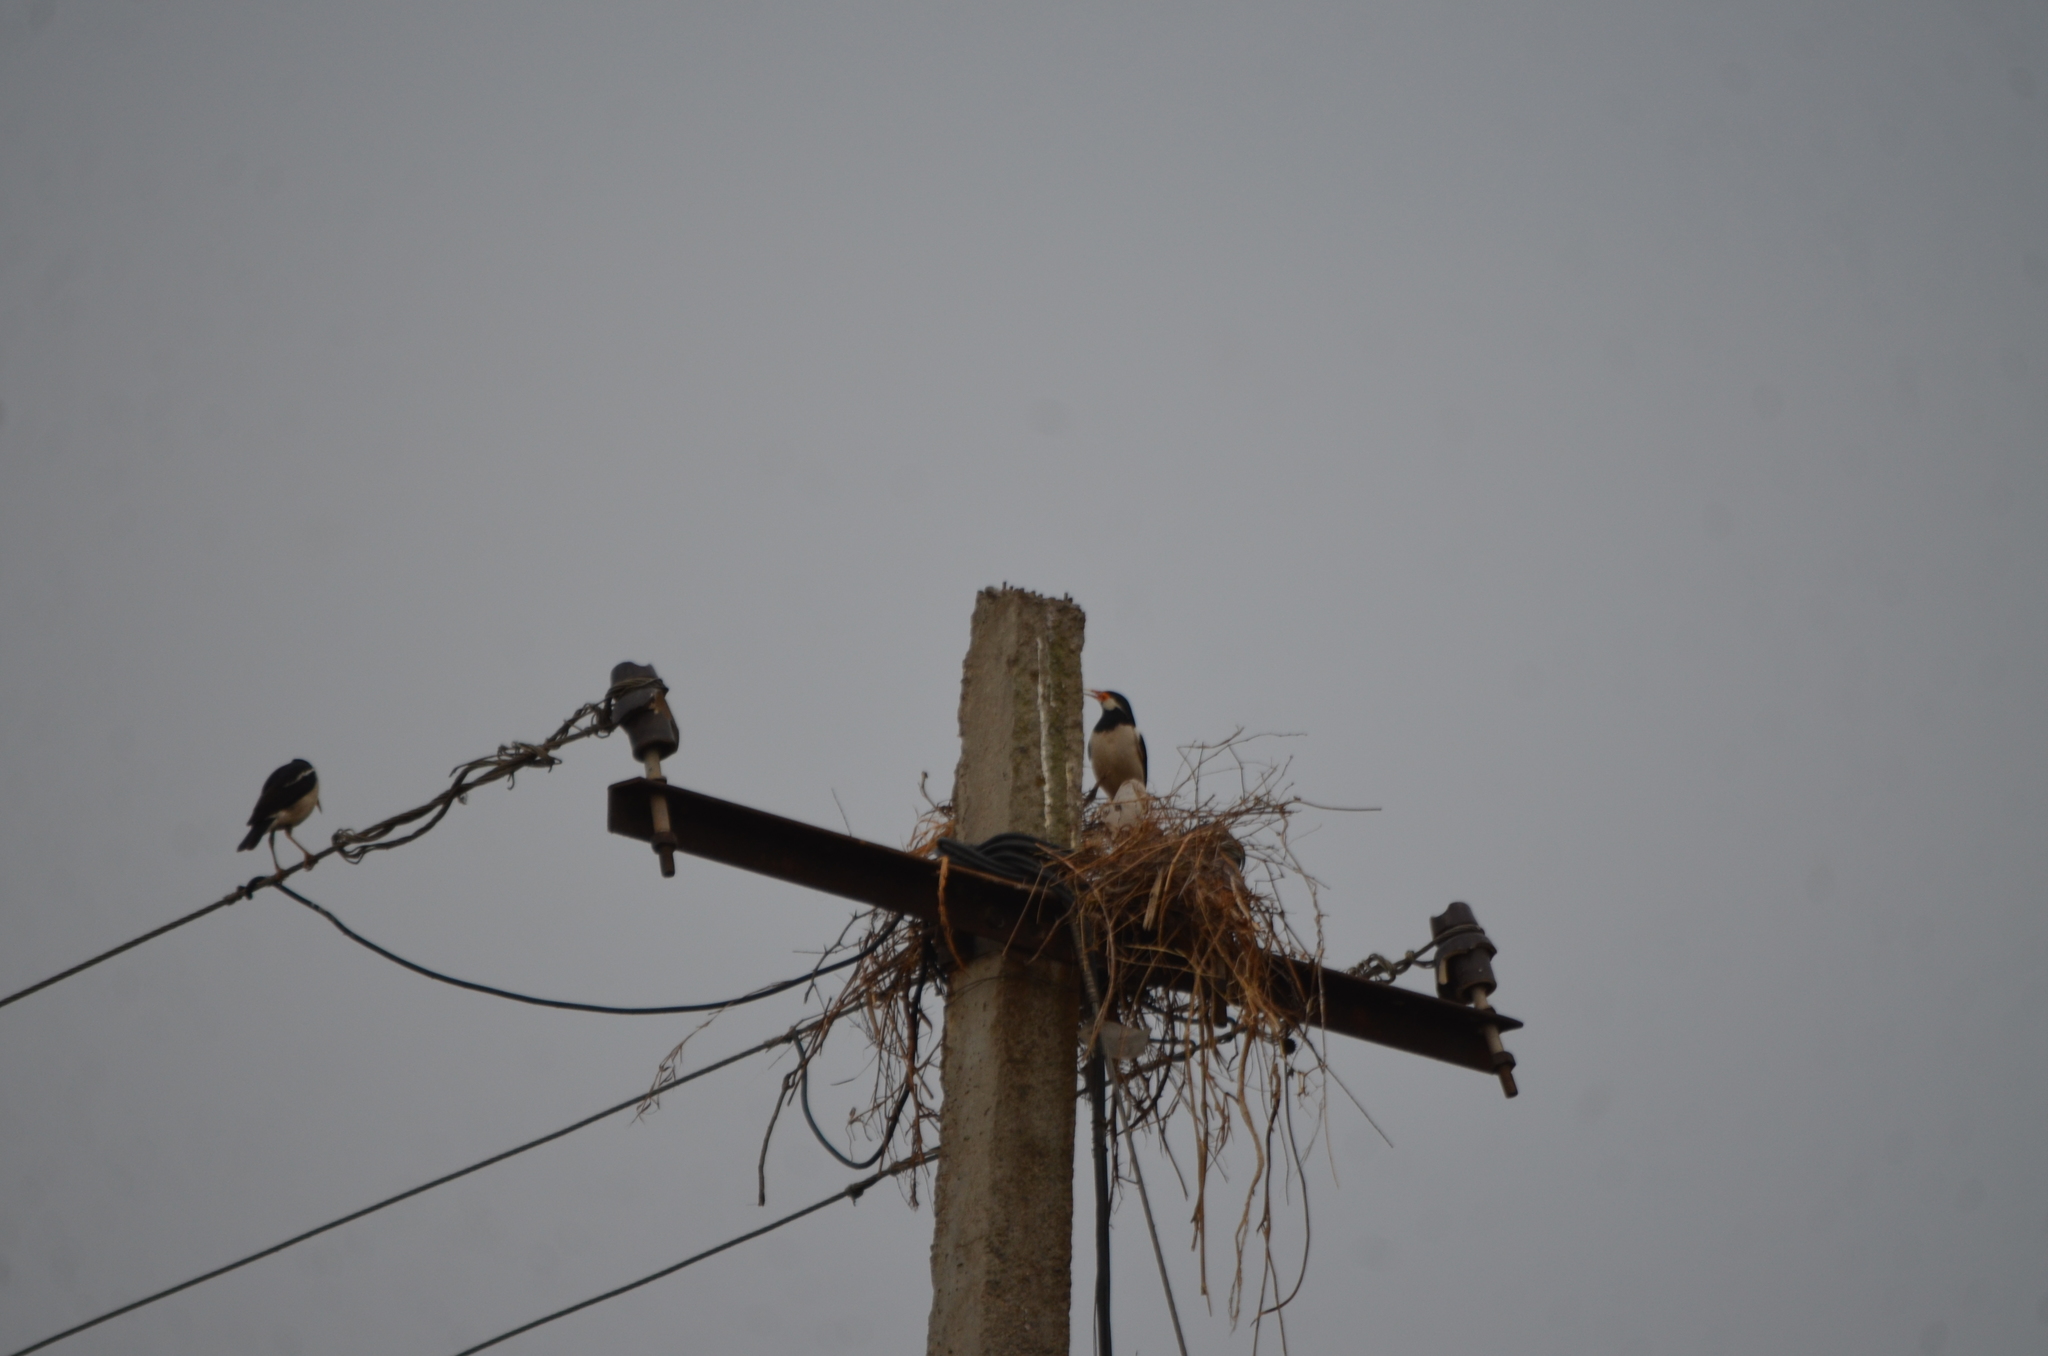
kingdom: Animalia
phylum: Chordata
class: Aves
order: Passeriformes
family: Sturnidae
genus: Gracupica
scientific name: Gracupica contra
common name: Pied myna
